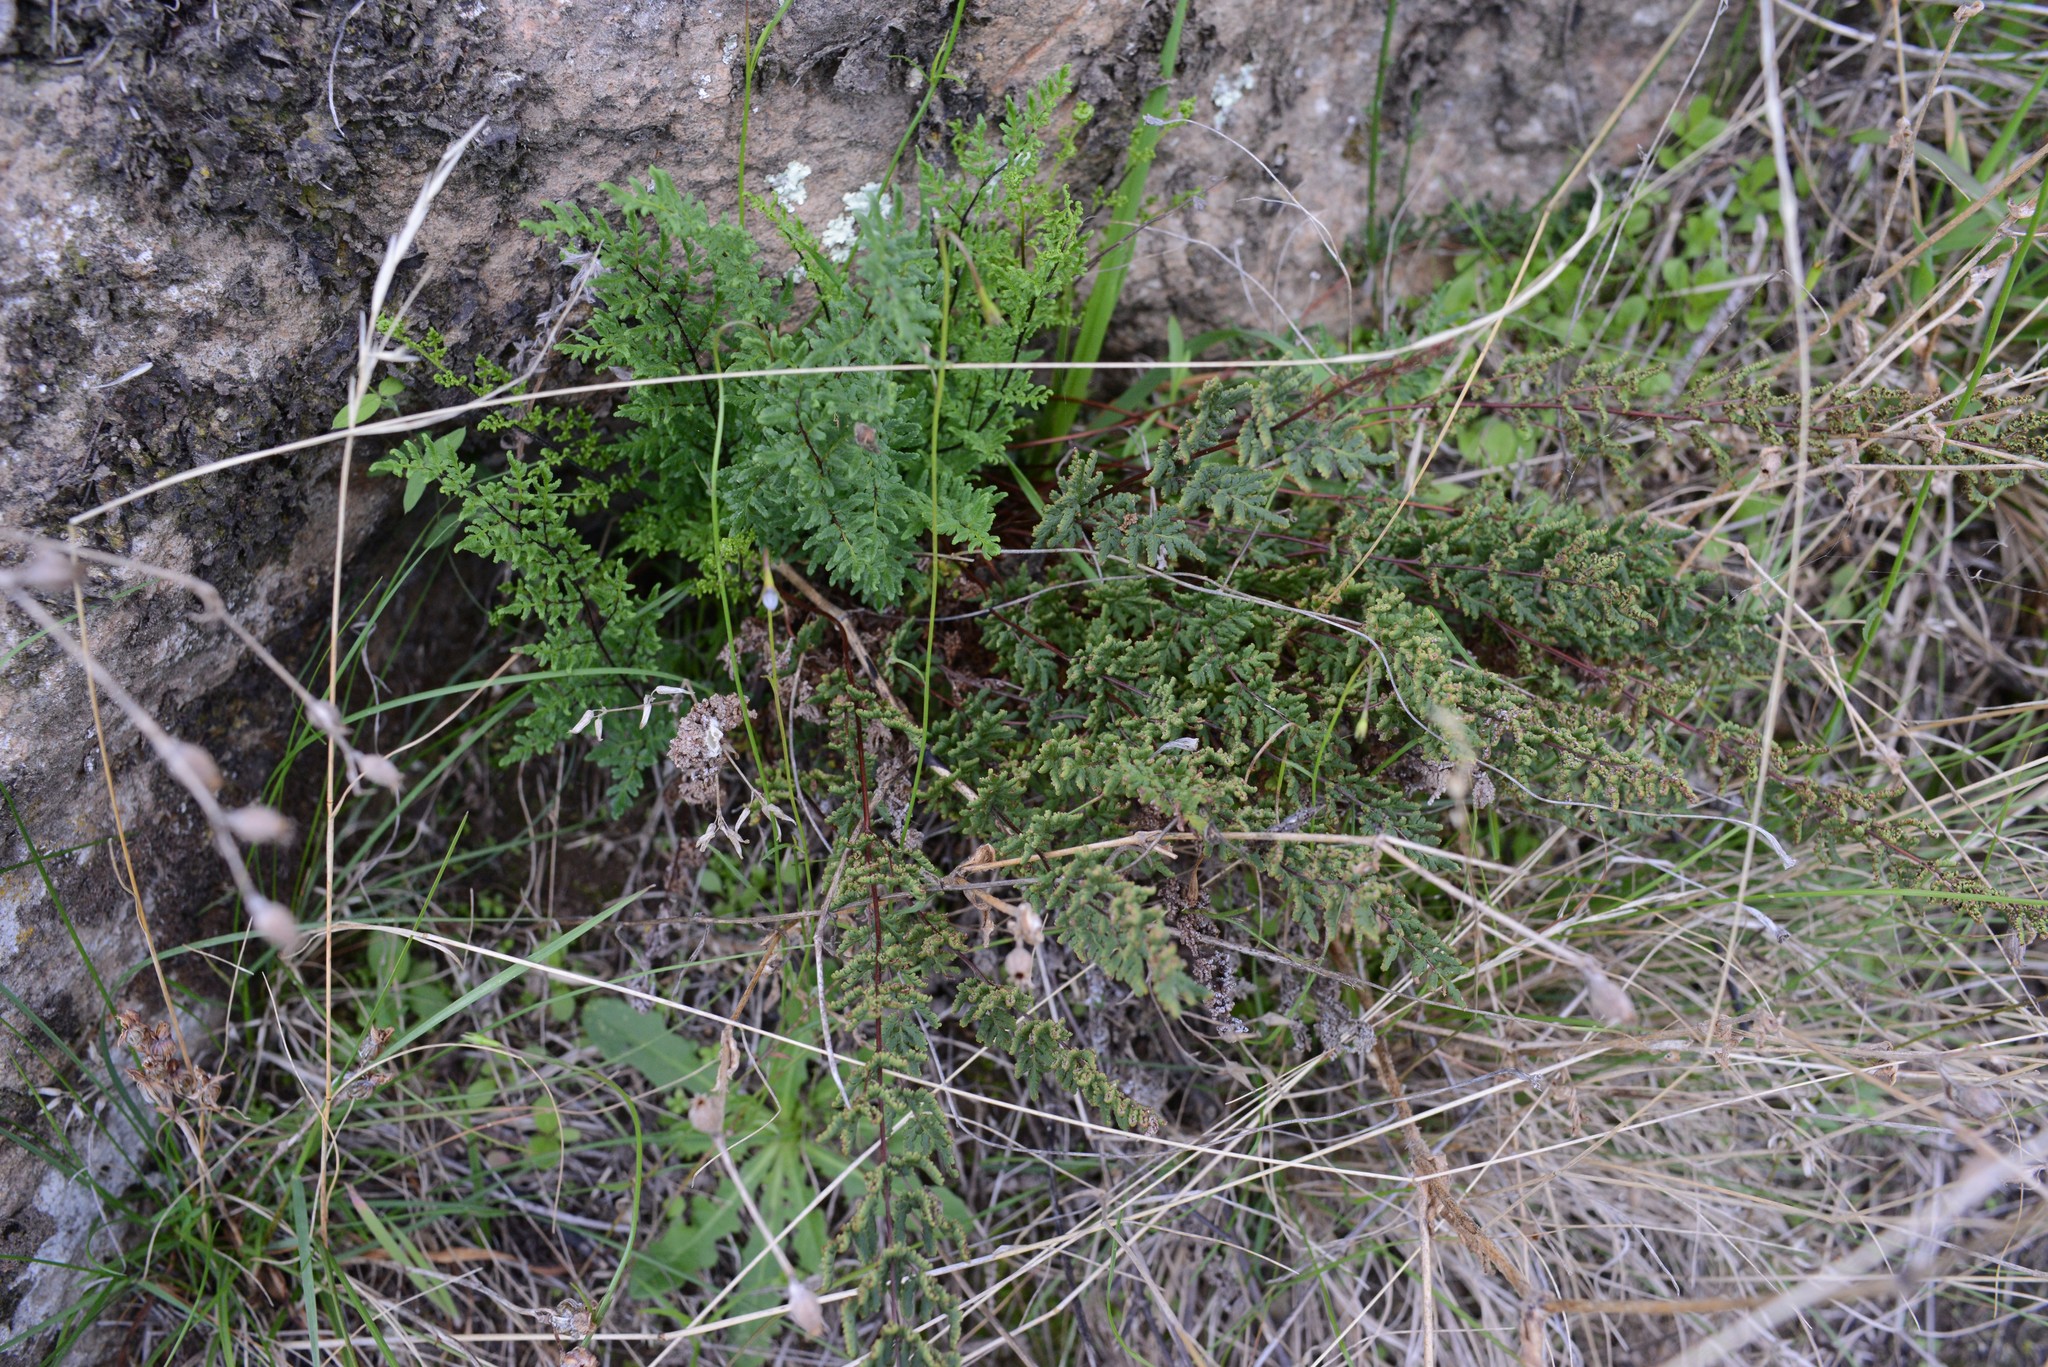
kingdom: Plantae
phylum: Tracheophyta
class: Polypodiopsida
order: Polypodiales
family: Pteridaceae
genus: Cheilanthes
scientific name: Cheilanthes sieberi
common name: Mulga fern
